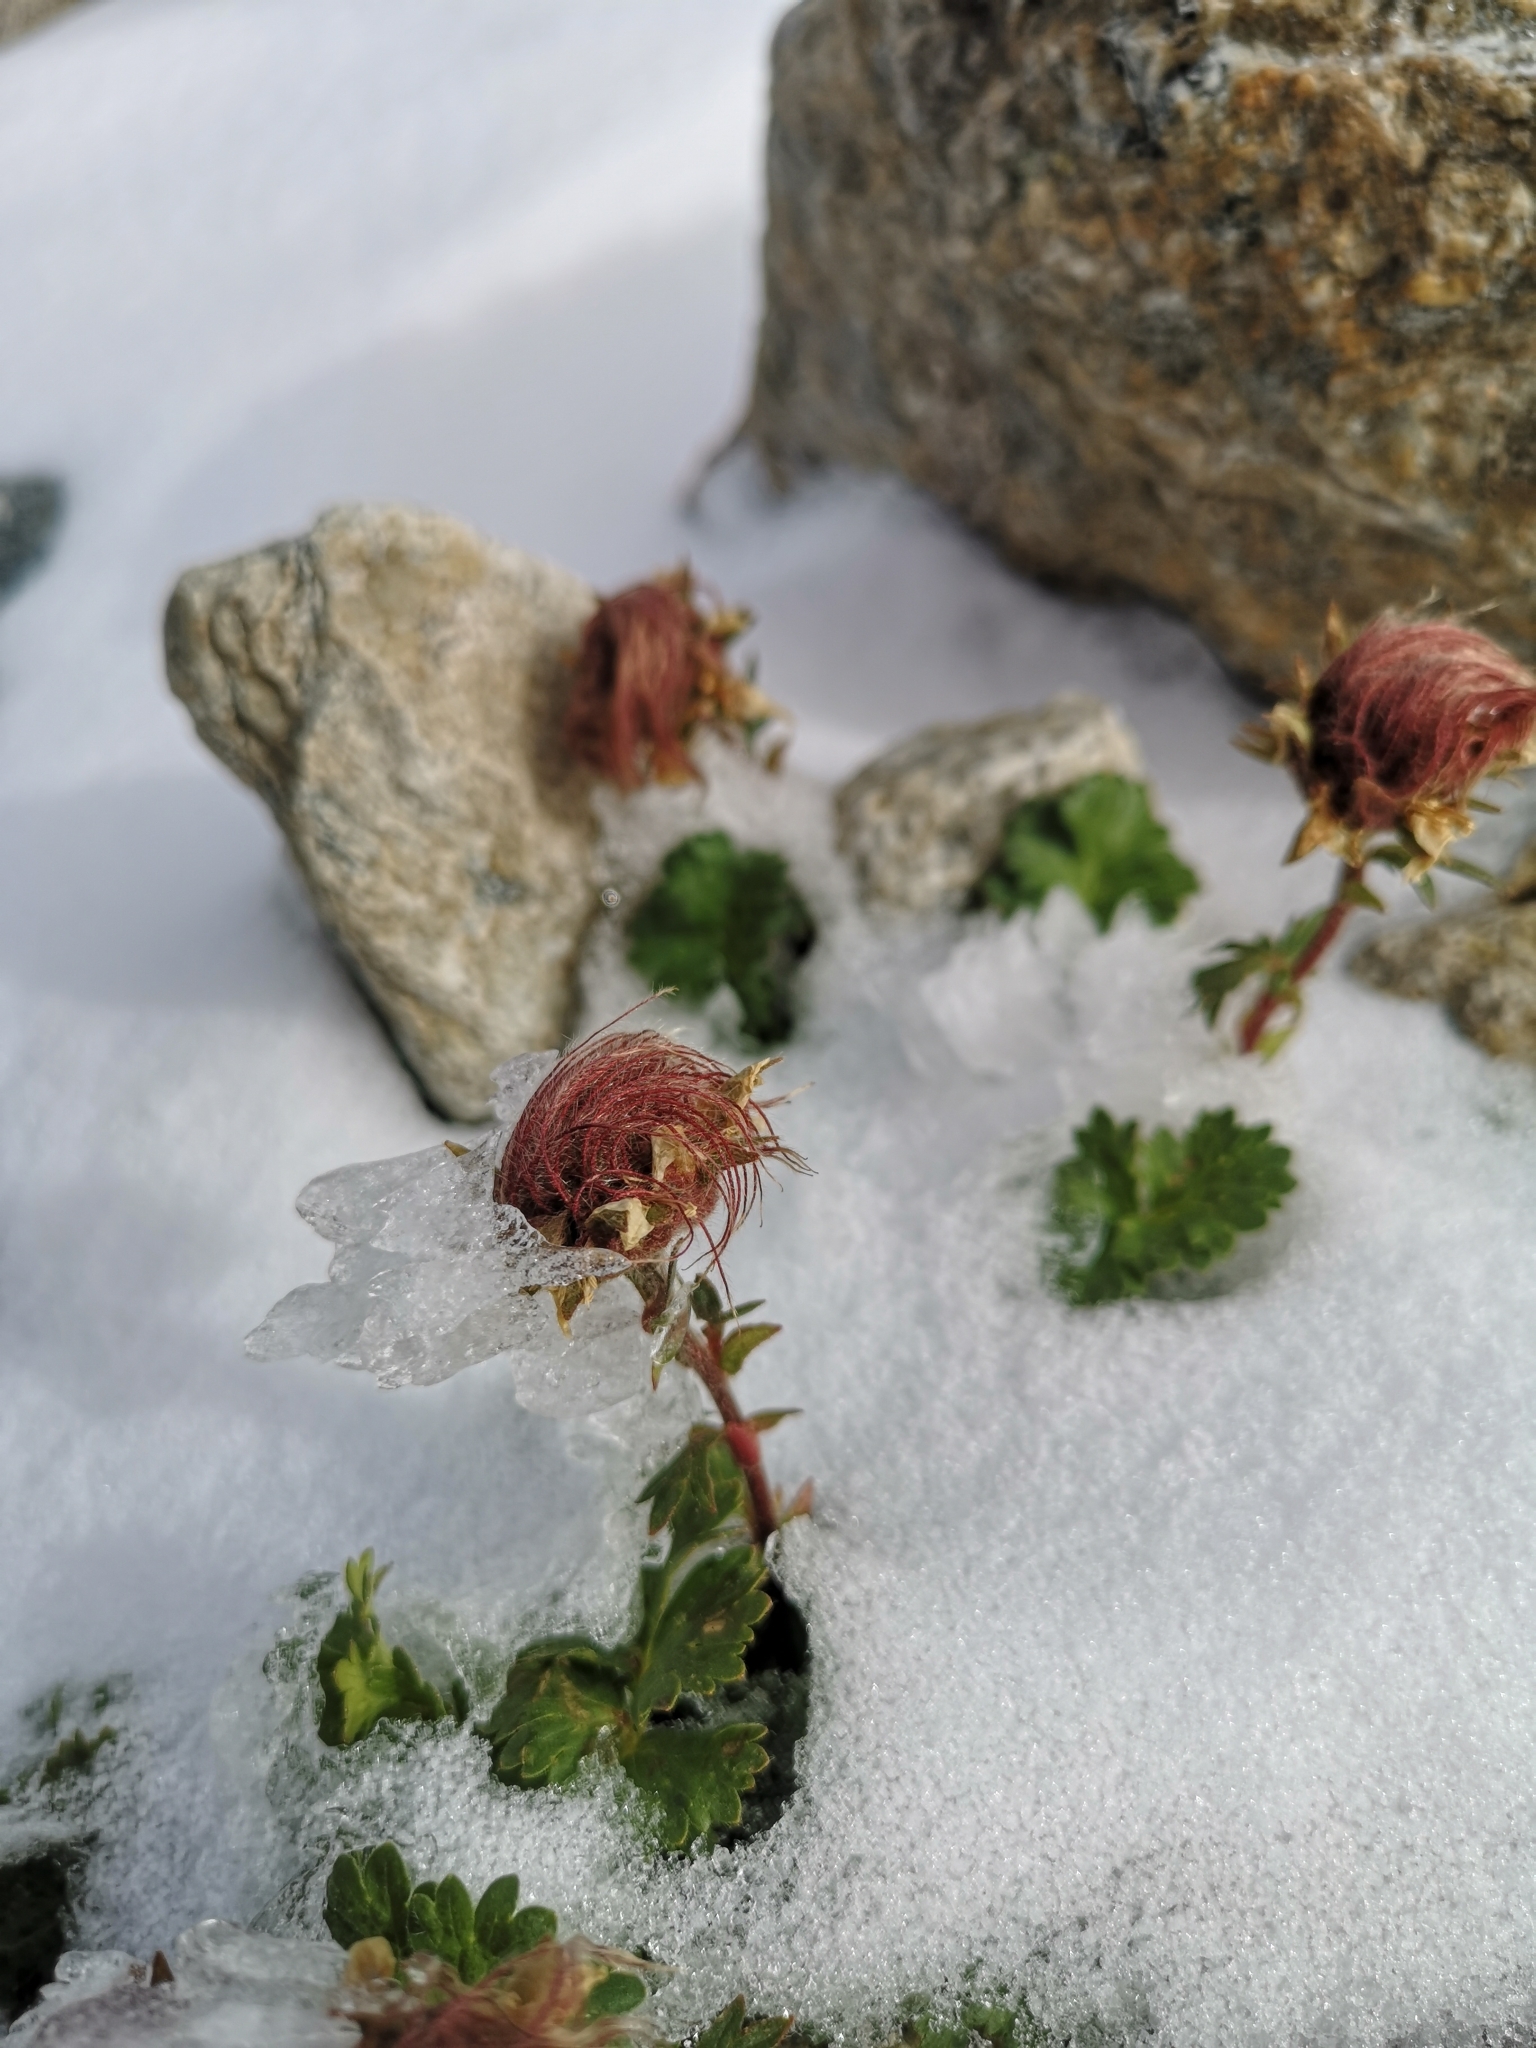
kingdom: Plantae
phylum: Tracheophyta
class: Magnoliopsida
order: Rosales
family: Rosaceae
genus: Geum
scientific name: Geum reptans
